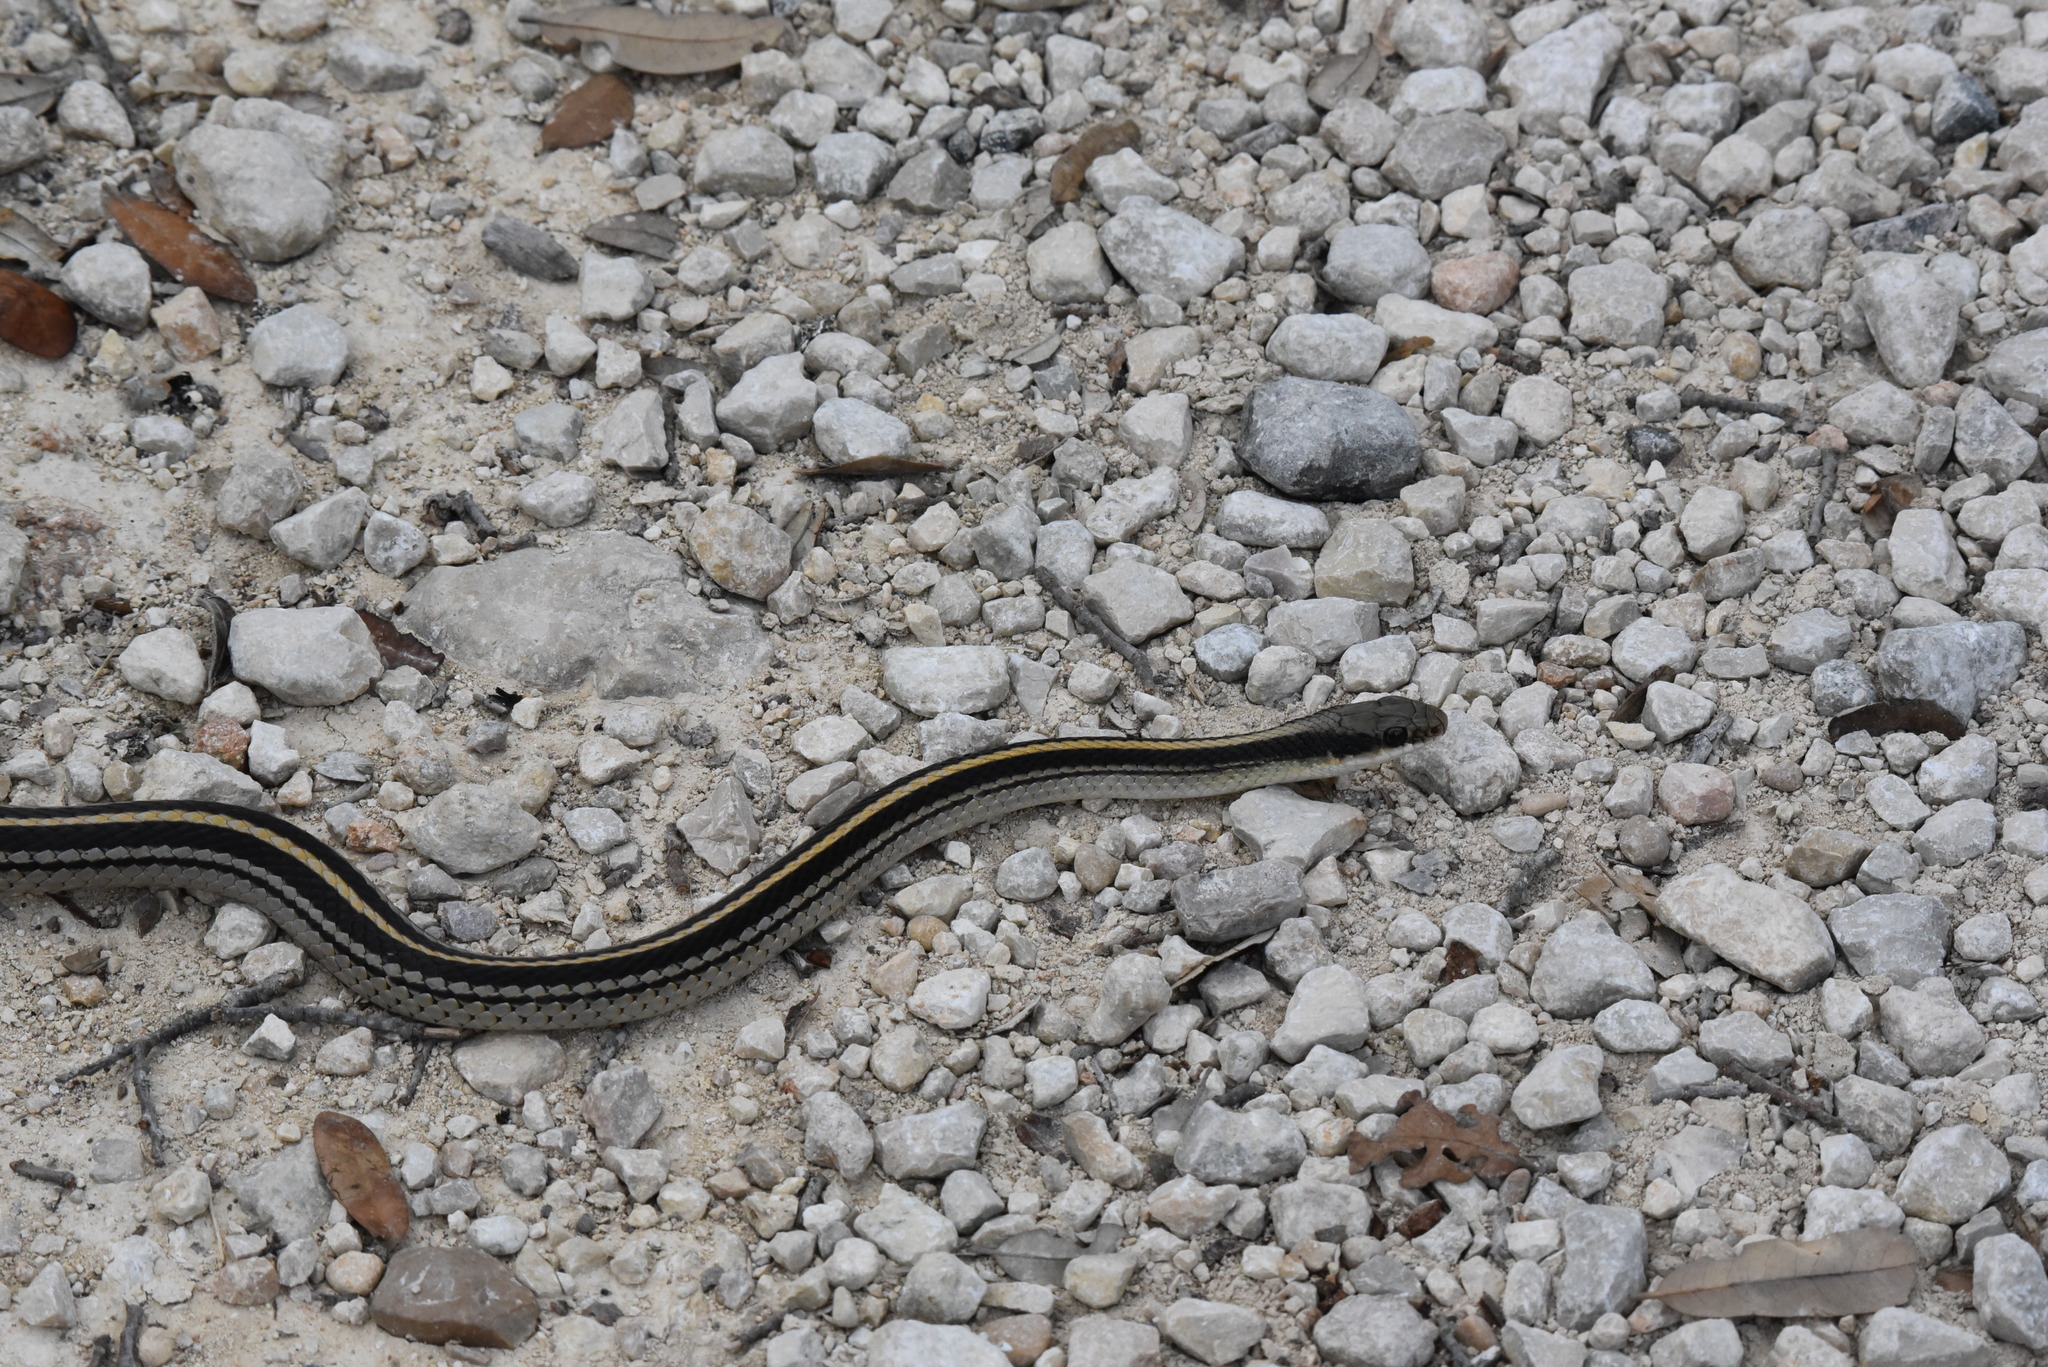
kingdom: Animalia
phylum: Chordata
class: Squamata
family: Colubridae
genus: Salvadora
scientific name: Salvadora lineata
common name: Texas patchnose snake
